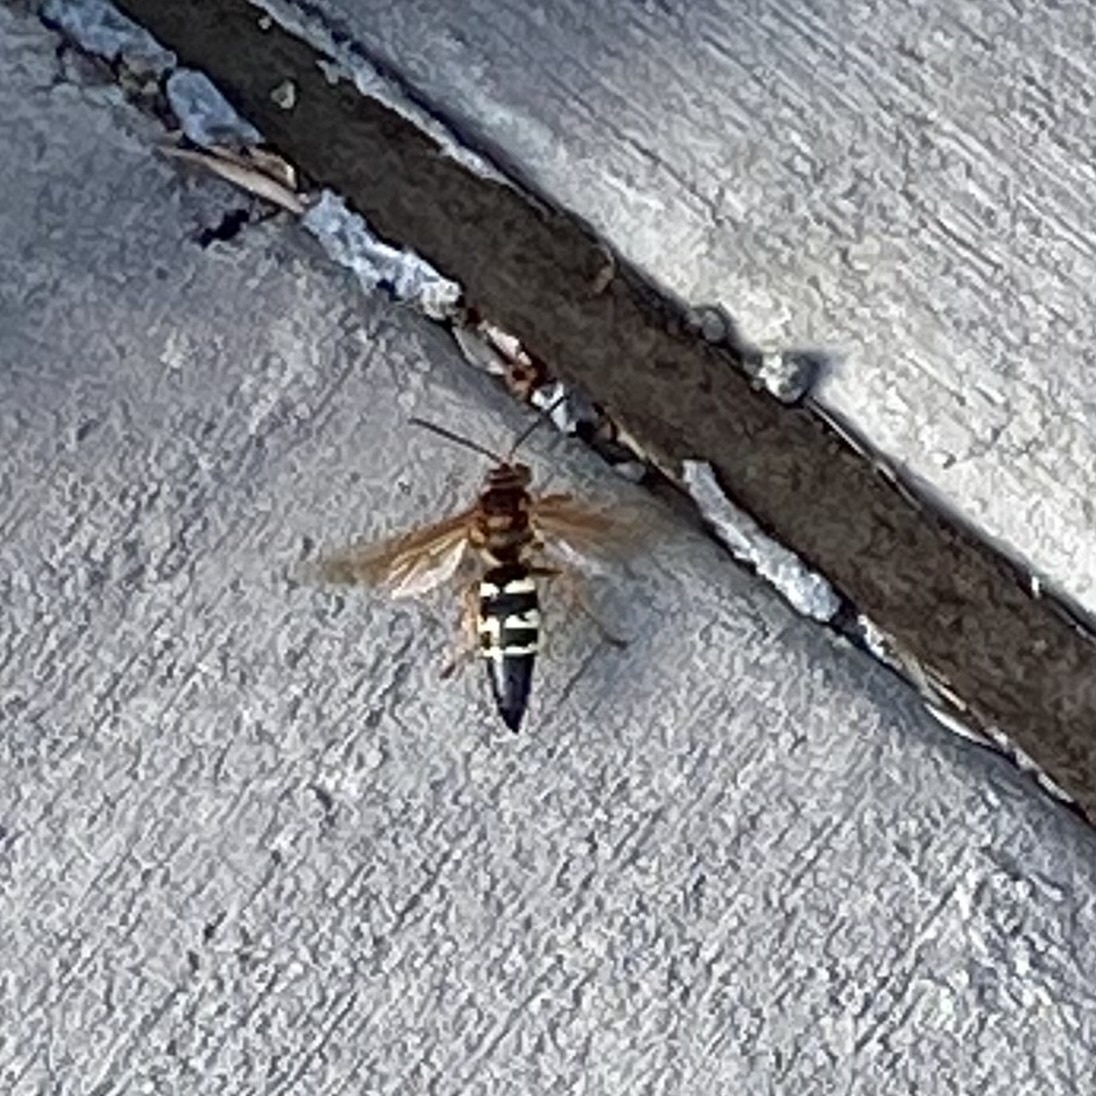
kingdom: Animalia
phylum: Arthropoda
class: Insecta
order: Hymenoptera
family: Crabronidae
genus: Sphecius
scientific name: Sphecius speciosus
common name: Cicada killer
